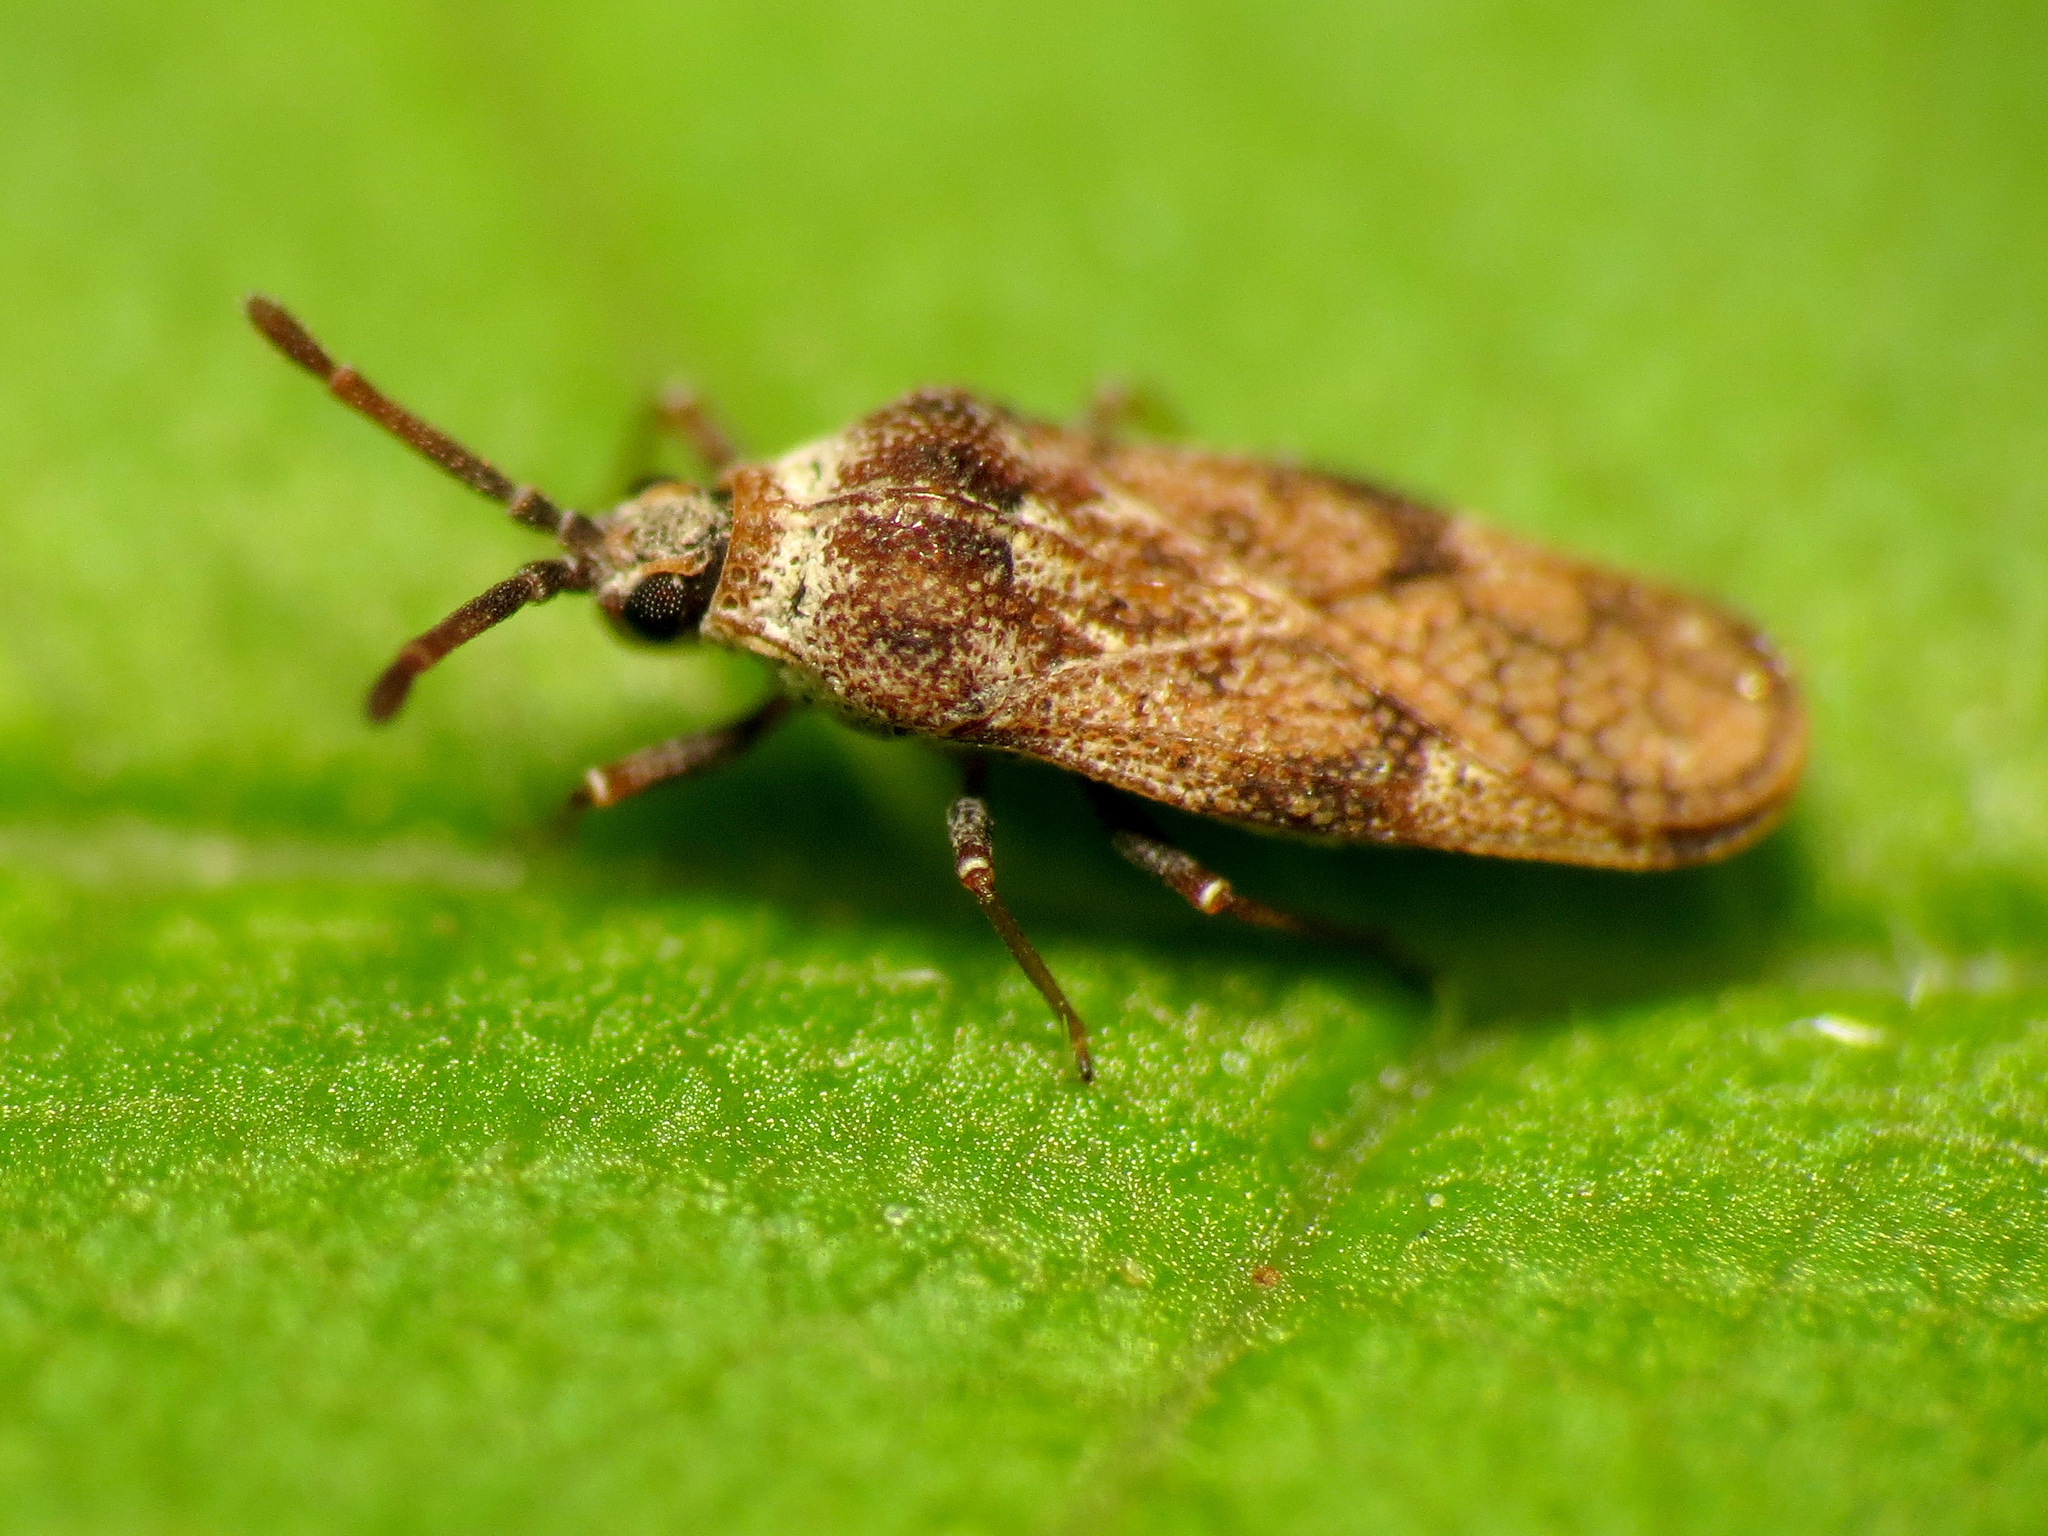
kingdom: Animalia
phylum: Arthropoda
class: Insecta
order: Hemiptera
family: Tingidae
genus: Leptoypha
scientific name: Leptoypha mutica
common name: Fringetree lace bug
